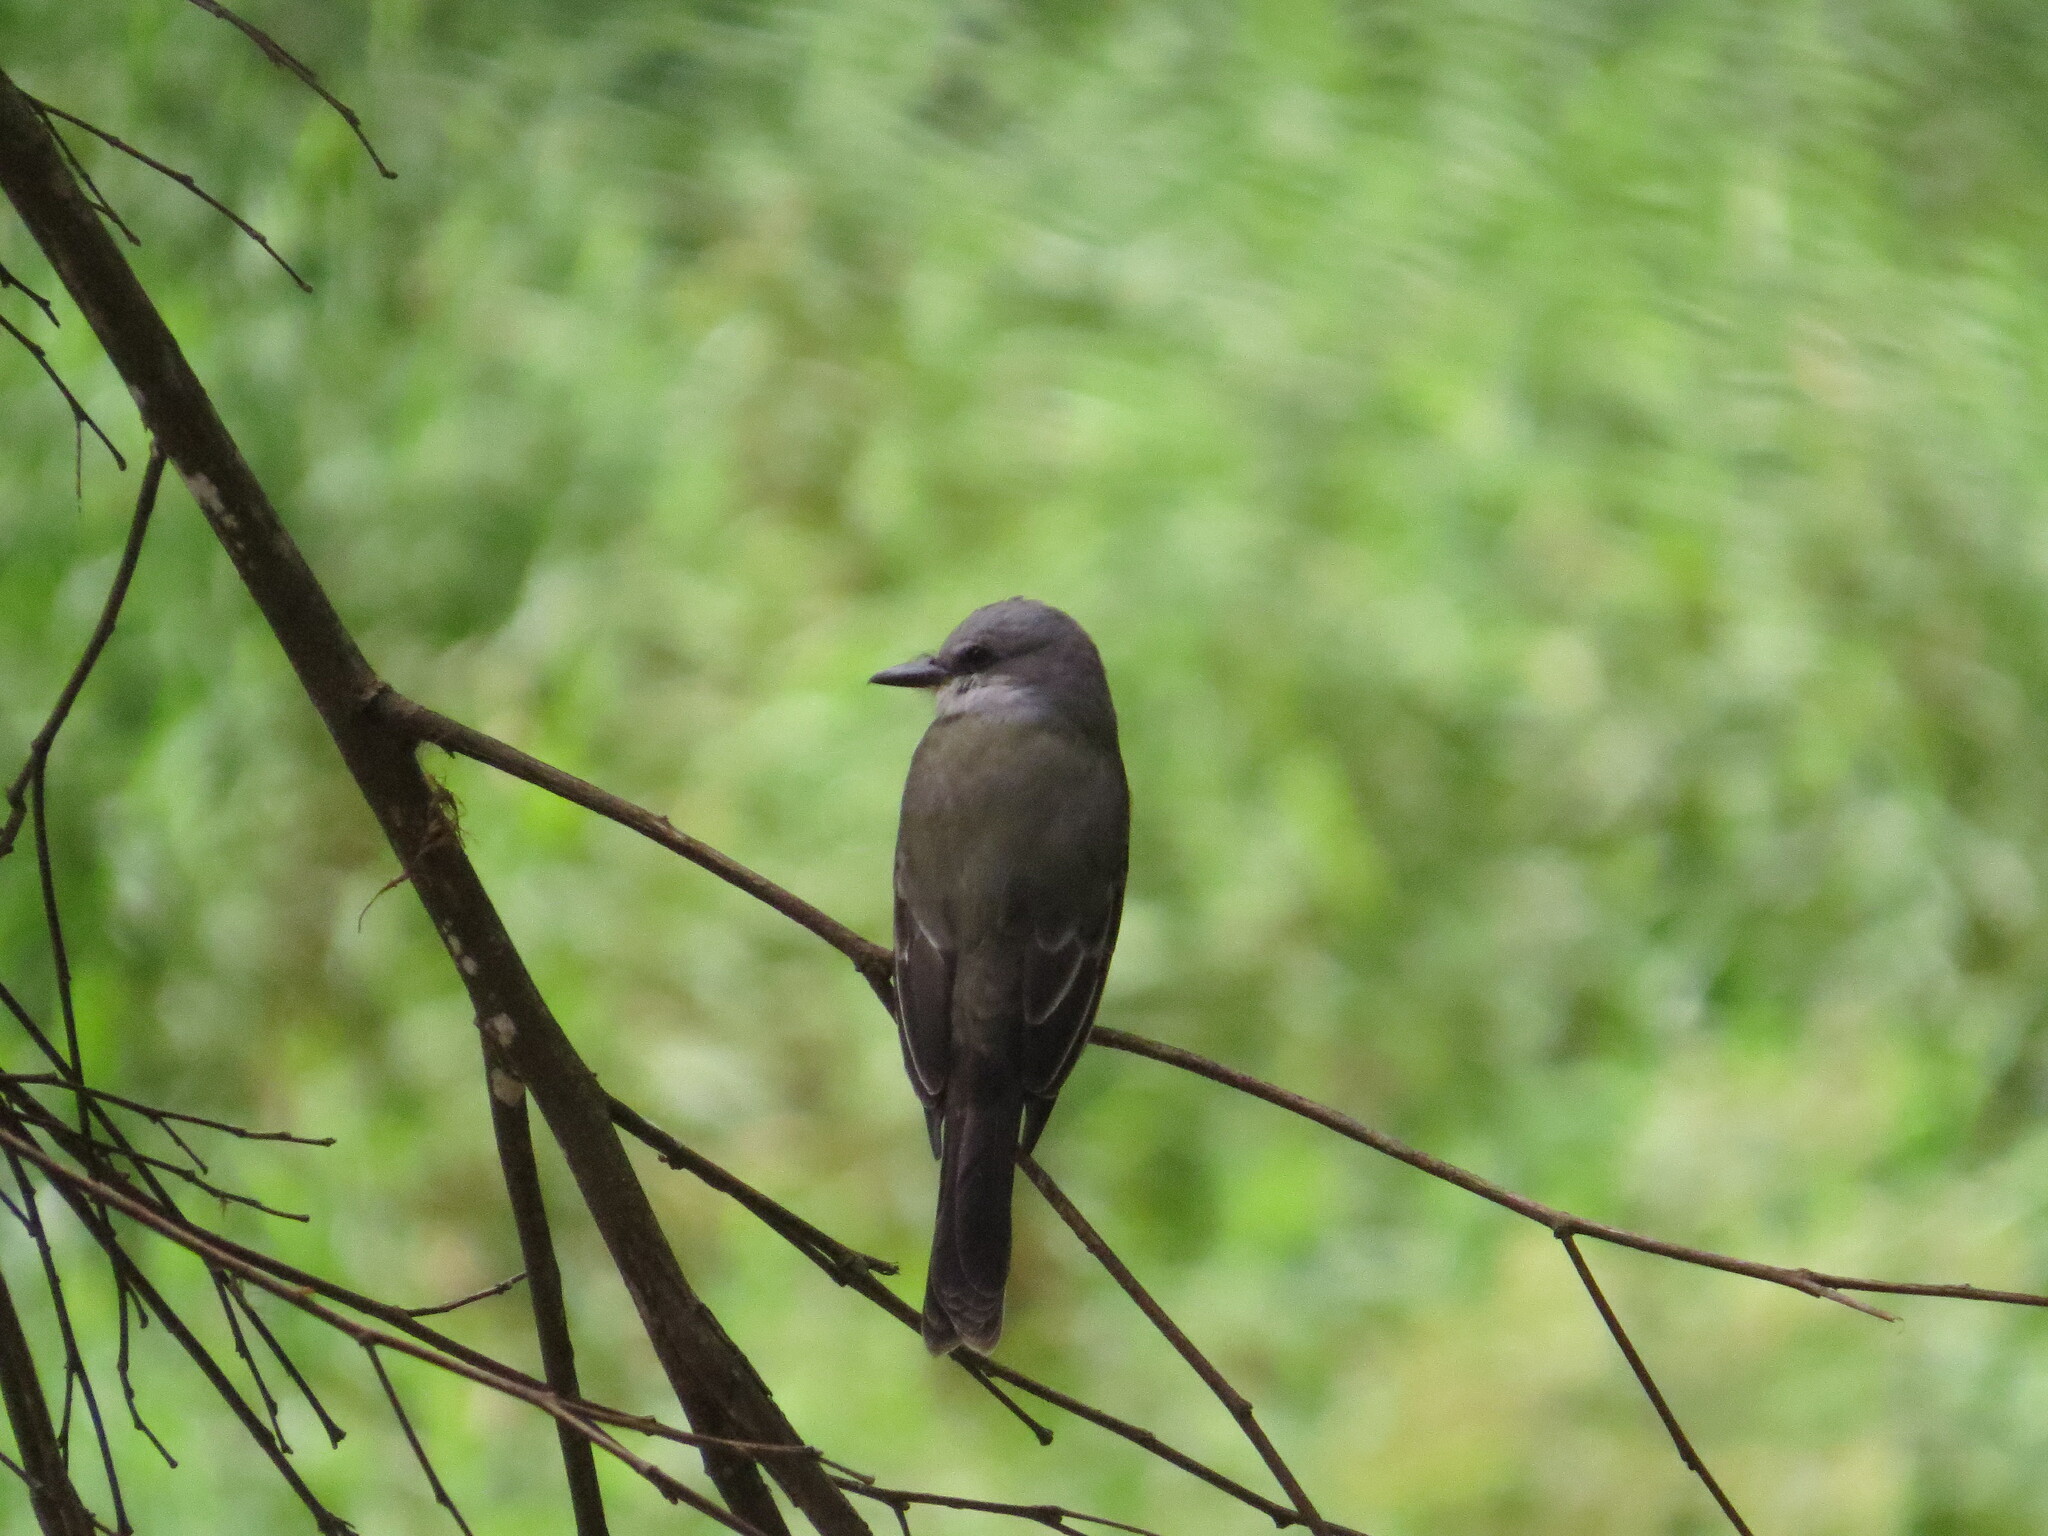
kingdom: Animalia
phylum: Chordata
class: Aves
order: Passeriformes
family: Tyrannidae
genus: Tyrannus
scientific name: Tyrannus melancholicus
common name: Tropical kingbird
